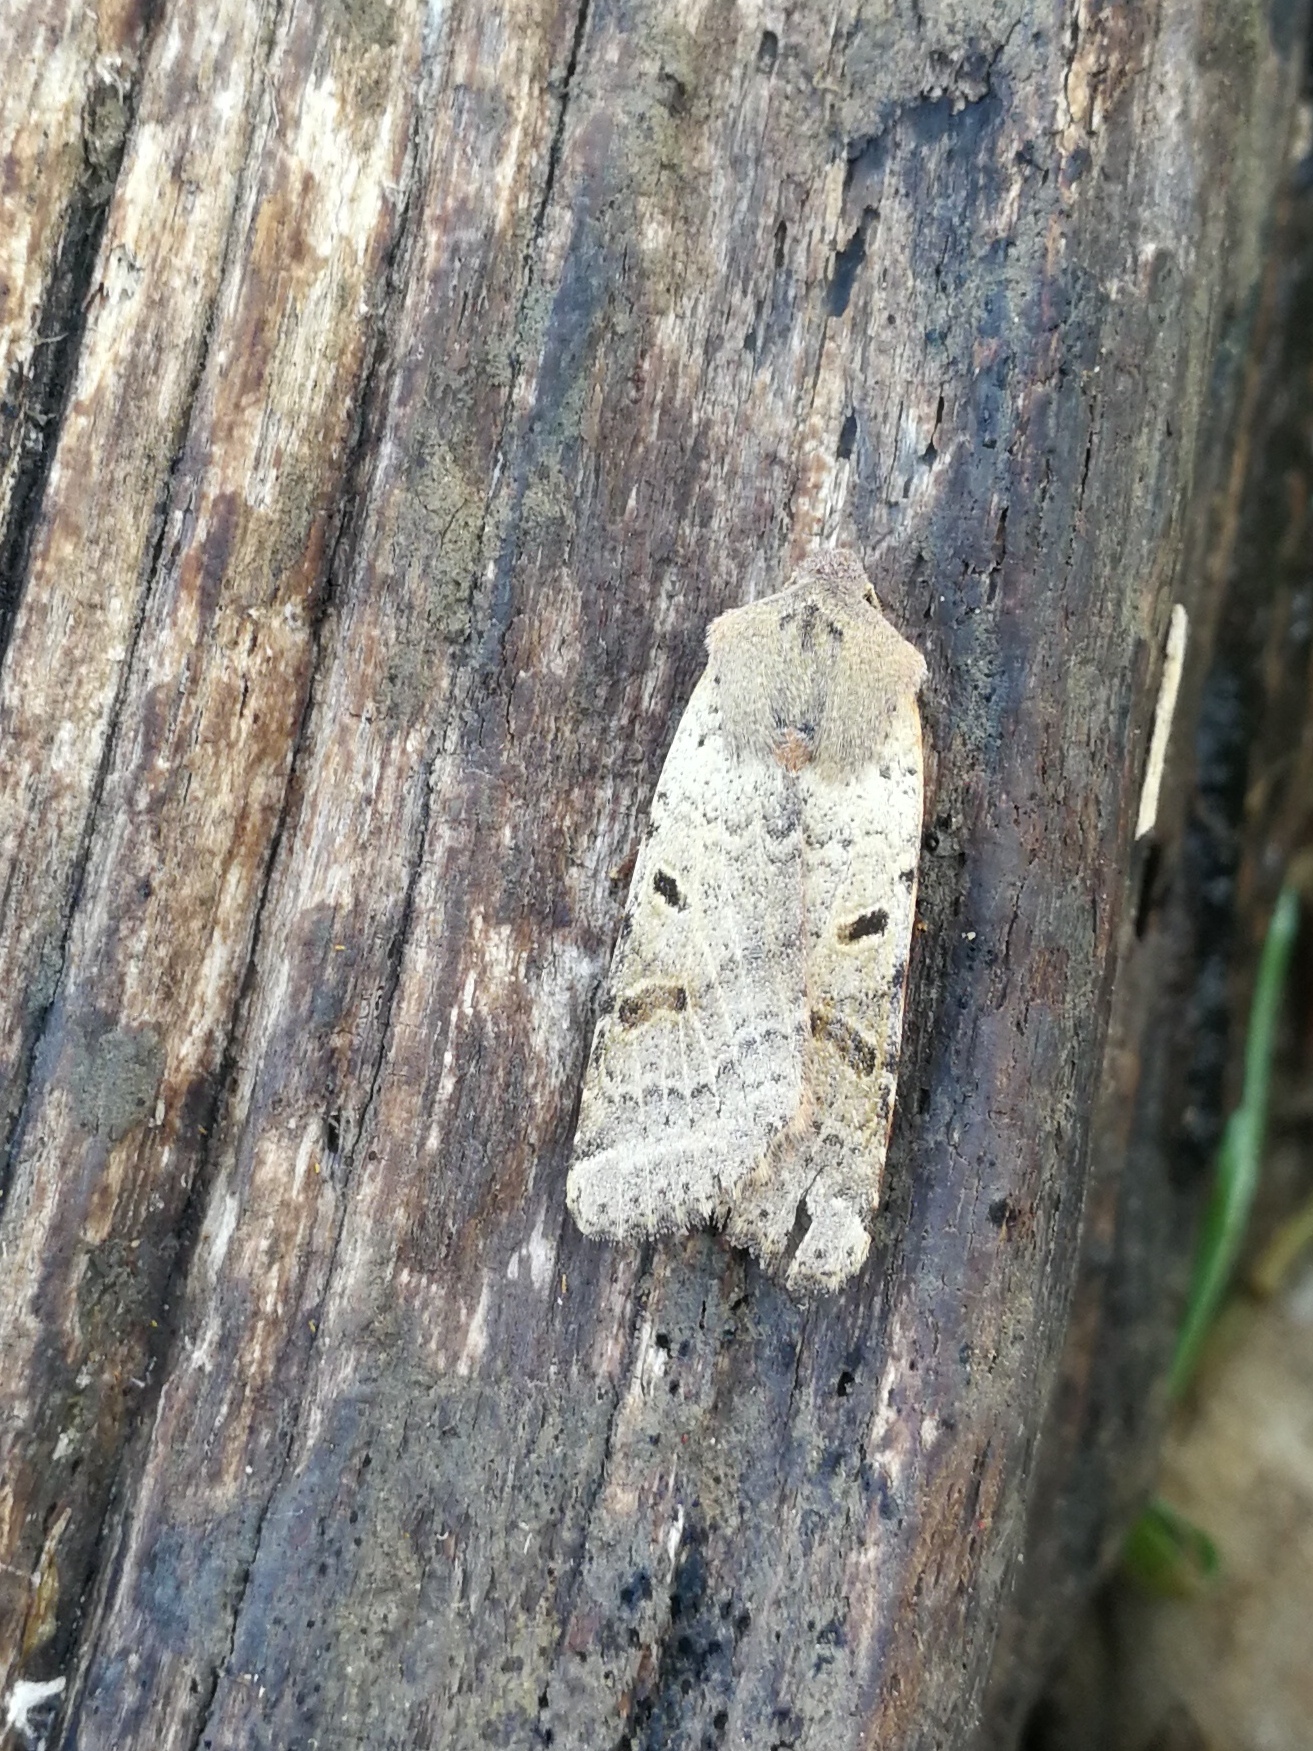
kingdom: Animalia
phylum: Arthropoda
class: Insecta
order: Lepidoptera
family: Noctuidae
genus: Agrochola
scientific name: Agrochola lychnidis
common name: Beaded chestnut
